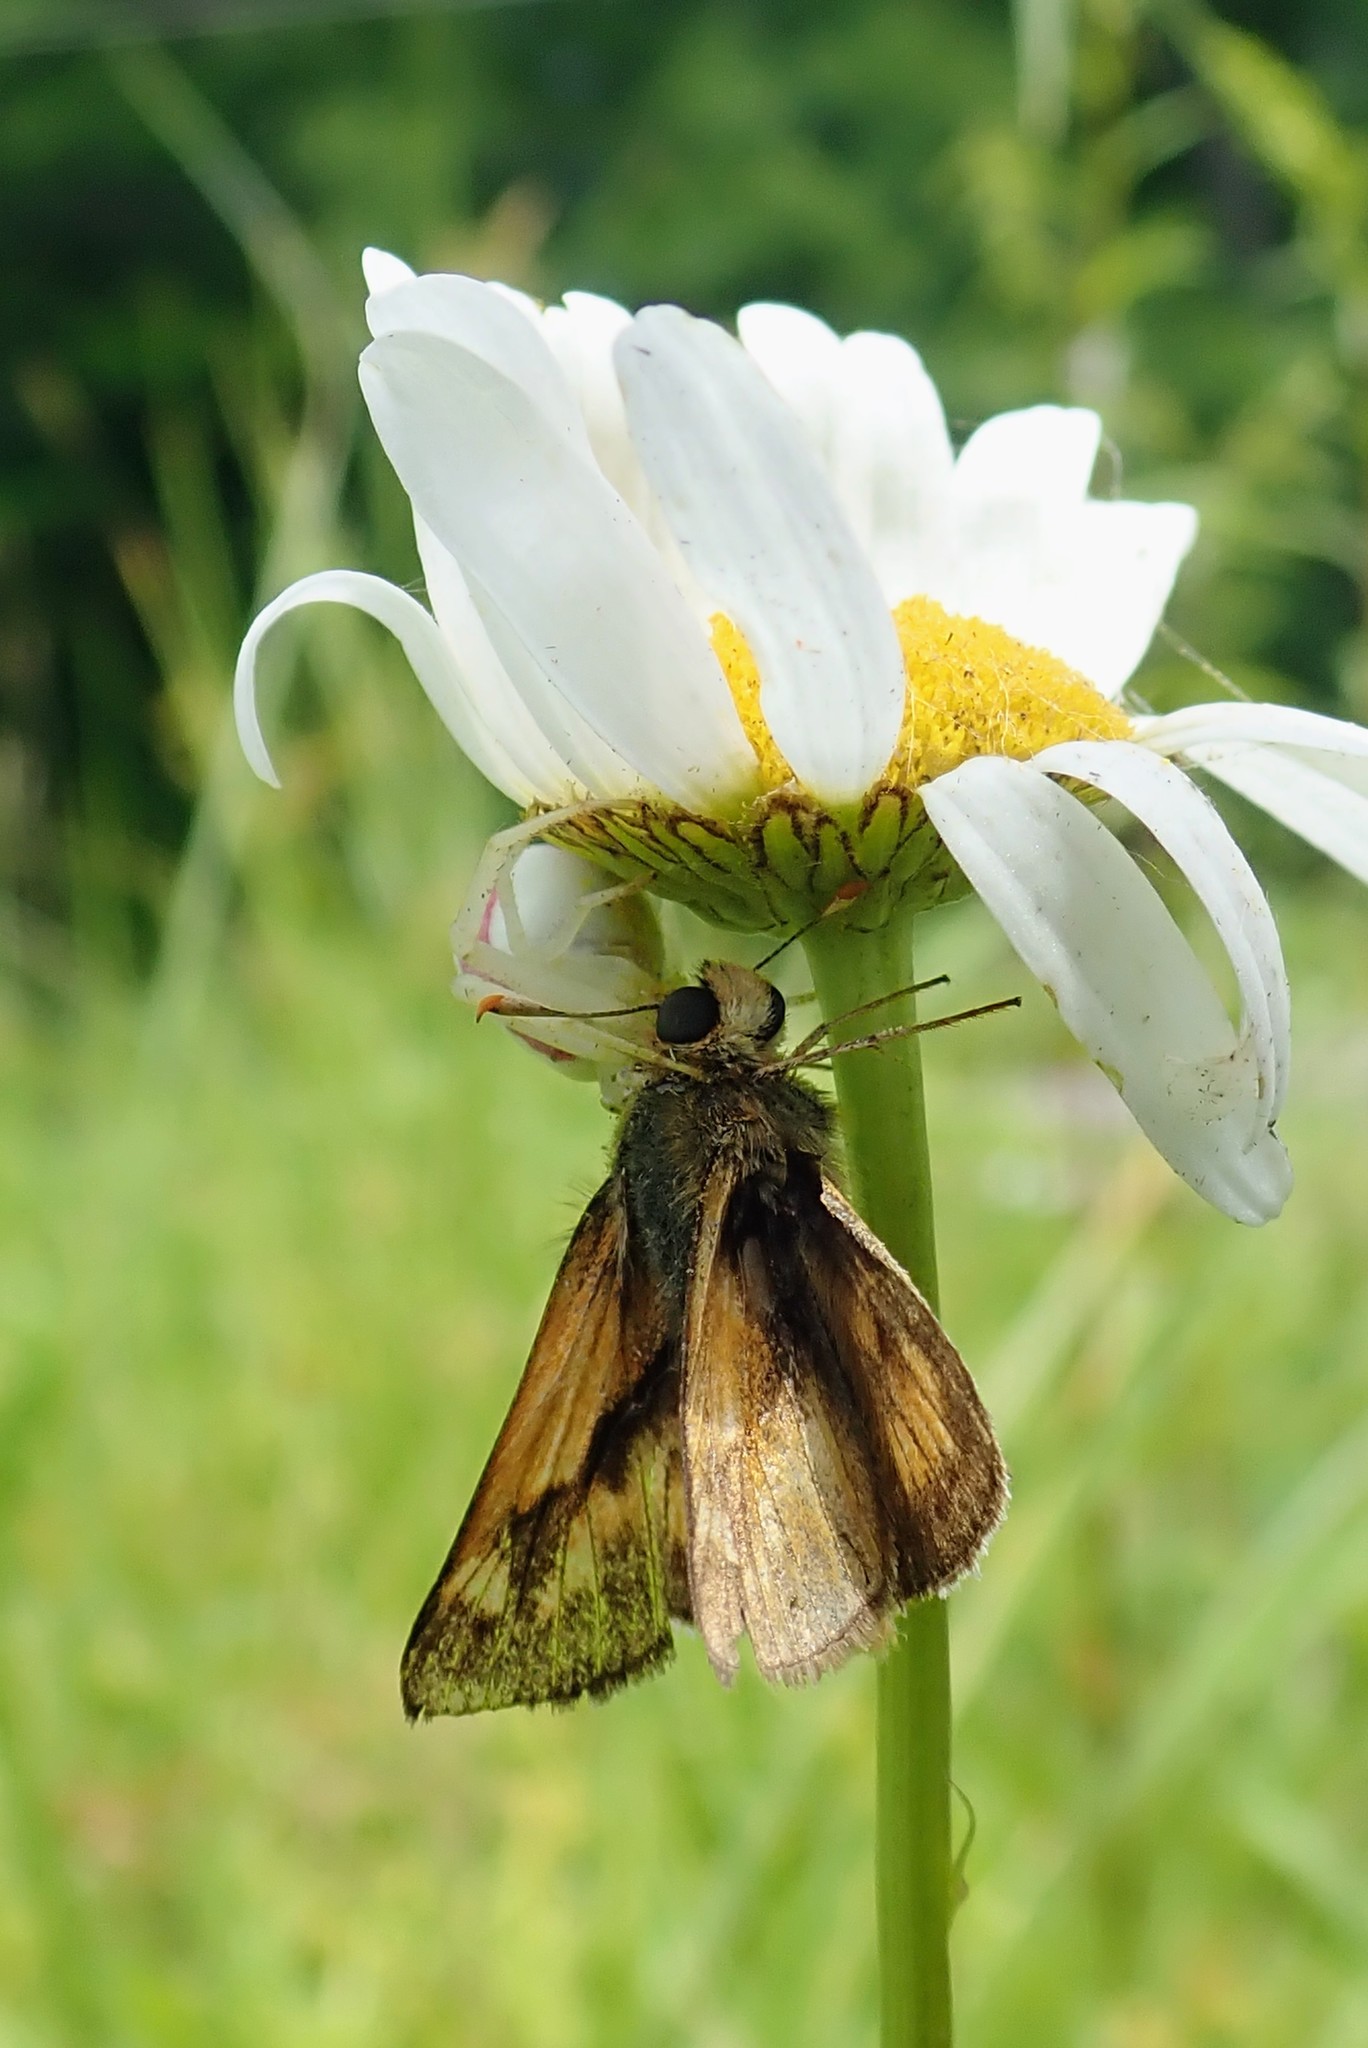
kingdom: Animalia
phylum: Arthropoda
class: Arachnida
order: Araneae
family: Thomisidae
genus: Misumena
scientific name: Misumena vatia
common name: Goldenrod crab spider
